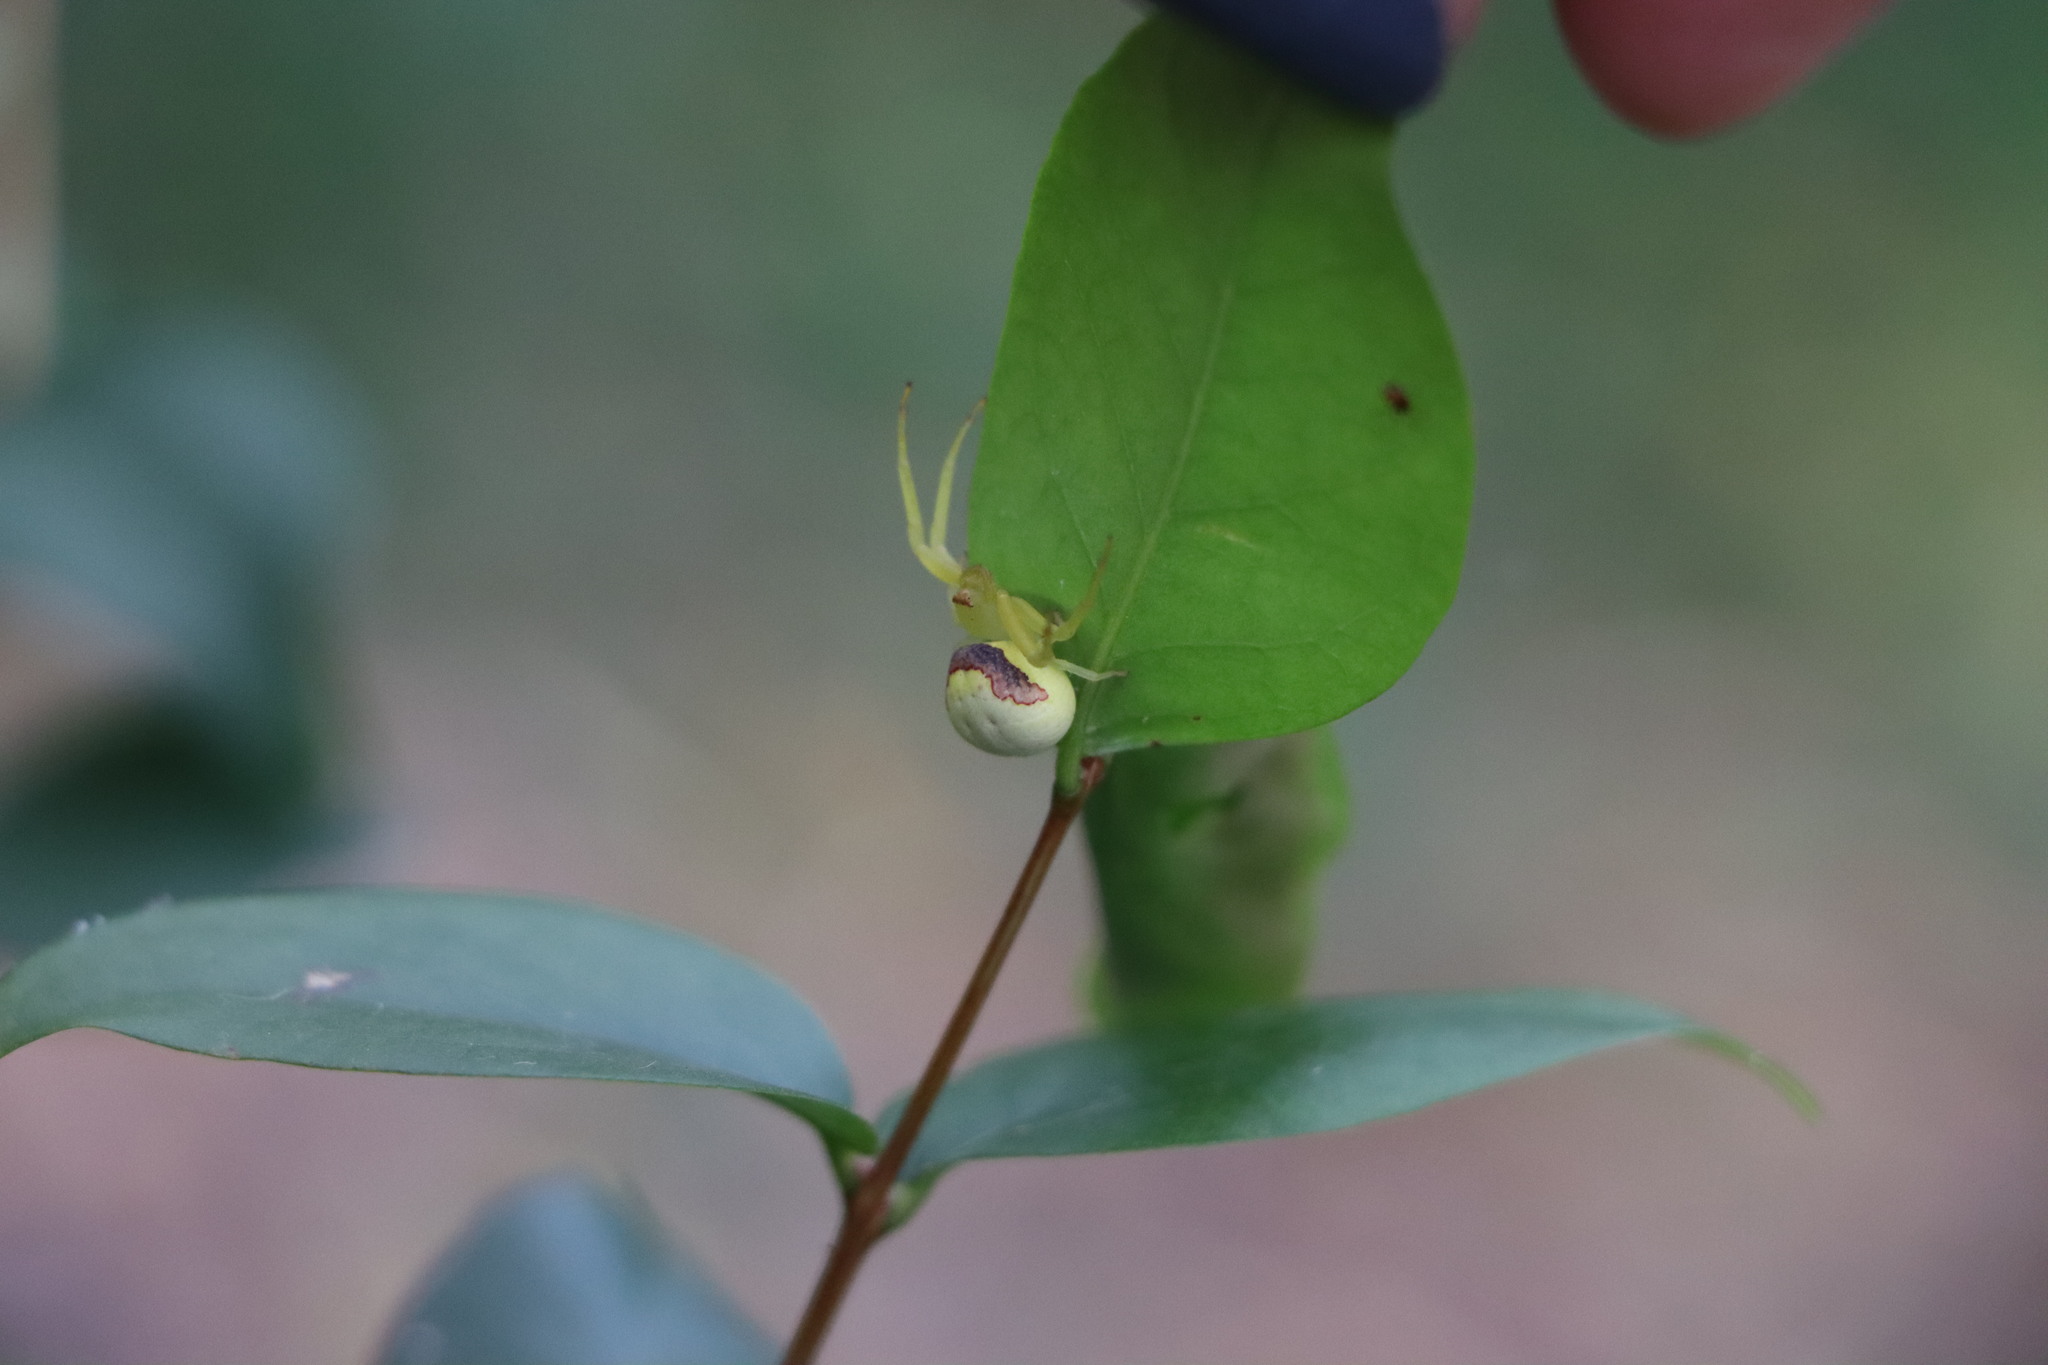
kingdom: Animalia
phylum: Arthropoda
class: Arachnida
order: Araneae
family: Thomisidae
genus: Misumenops
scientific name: Misumenops callinurus
